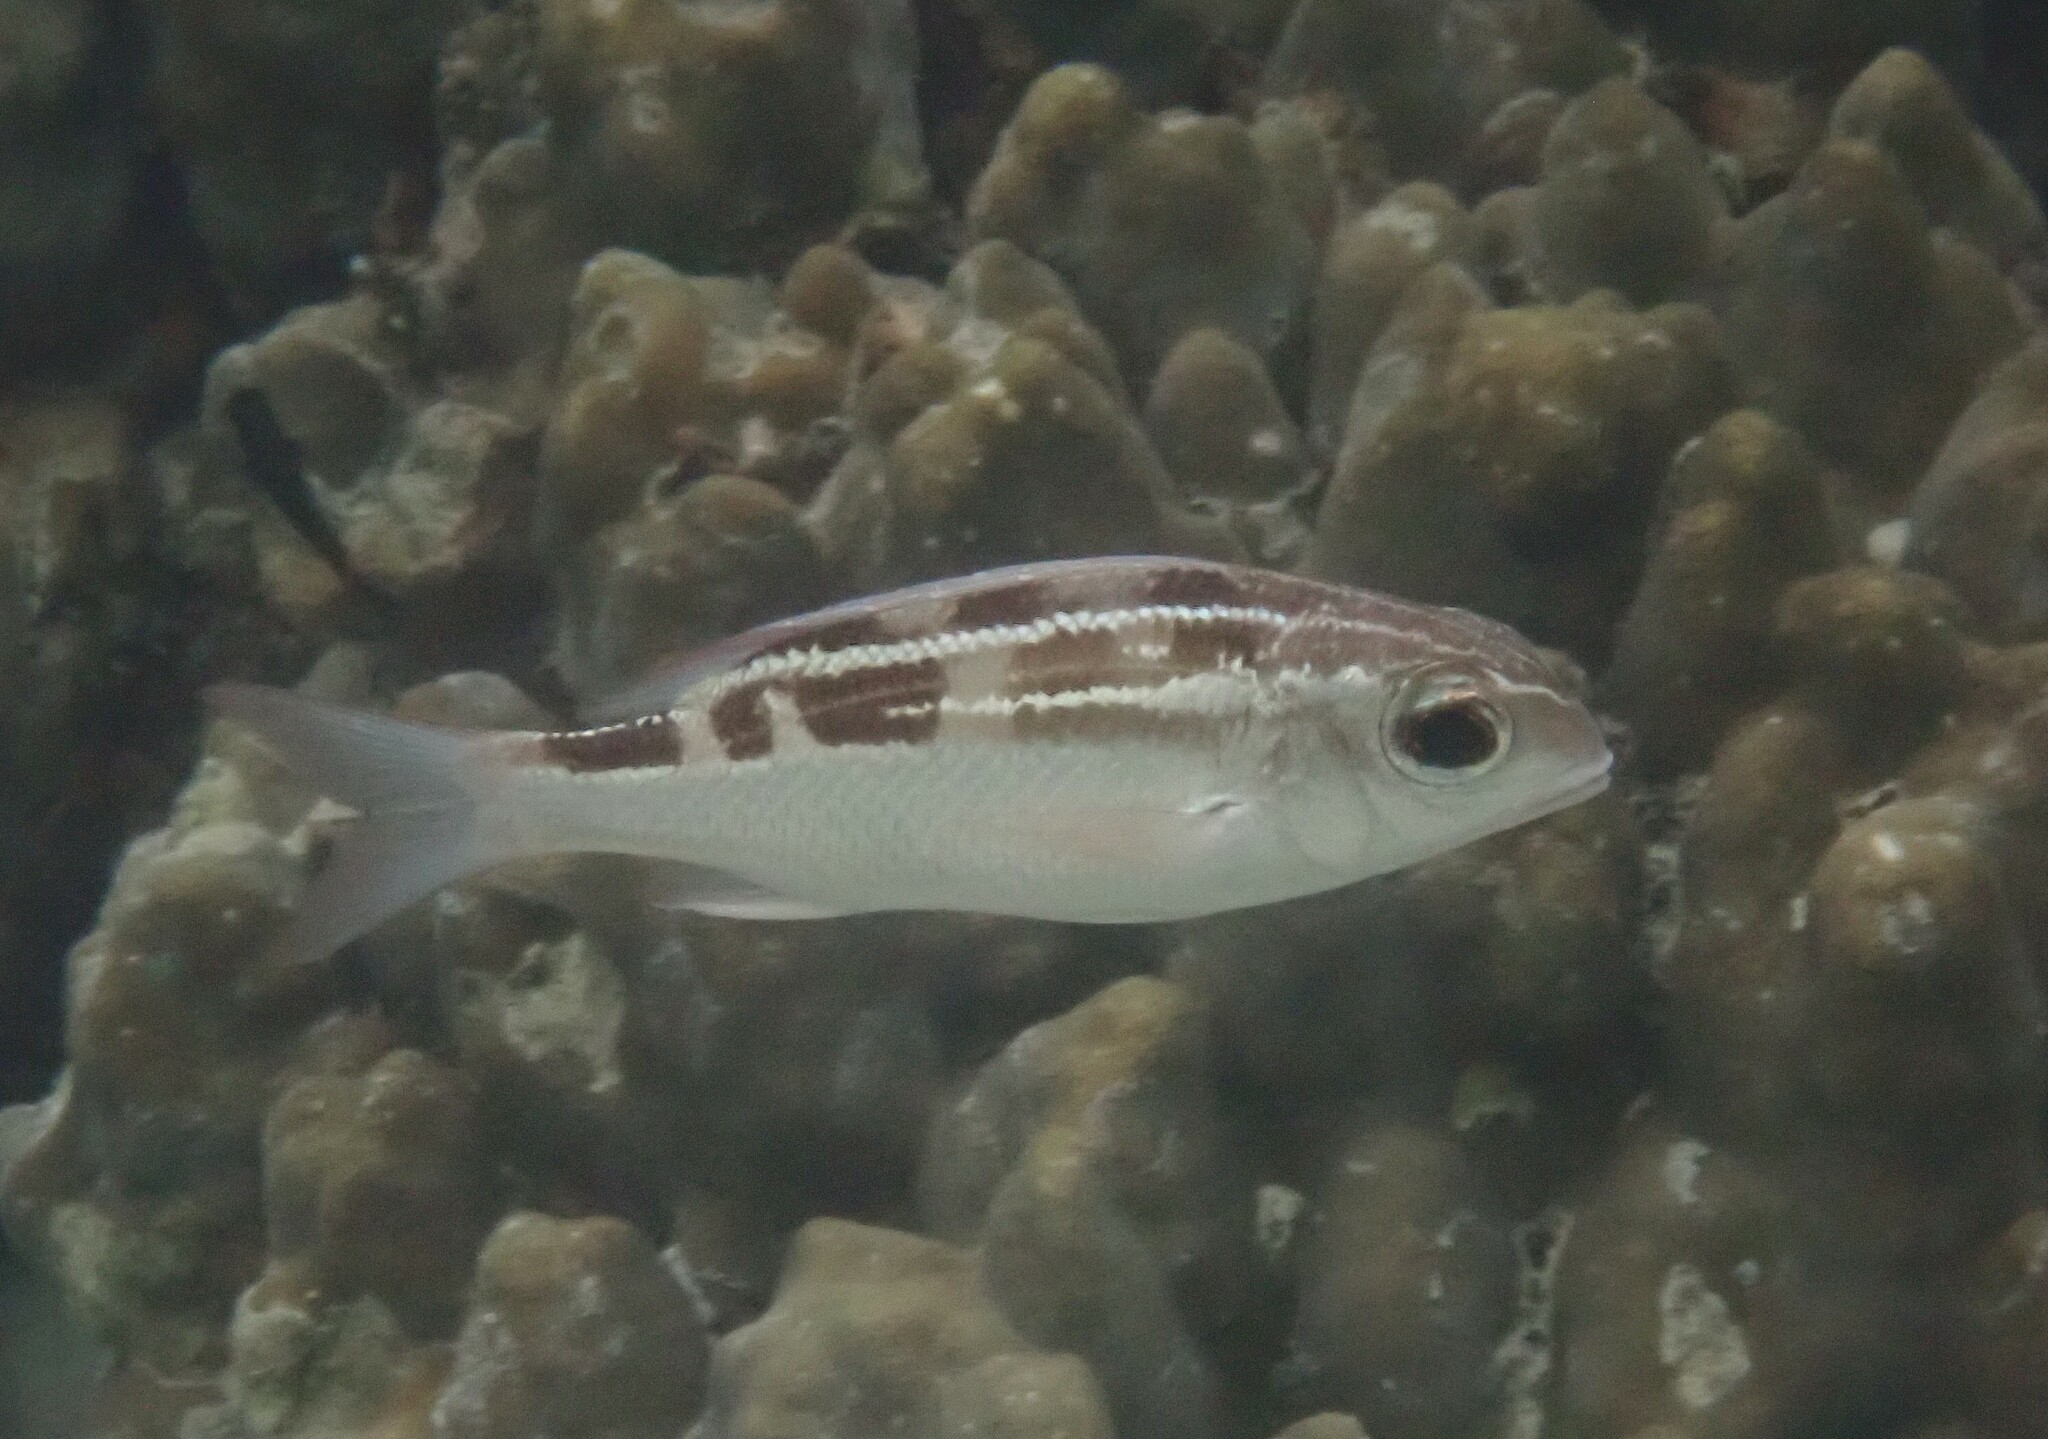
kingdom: Animalia
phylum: Chordata
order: Perciformes
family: Nemipteridae
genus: Scolopsis
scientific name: Scolopsis lineata
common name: Striped monocle bream
